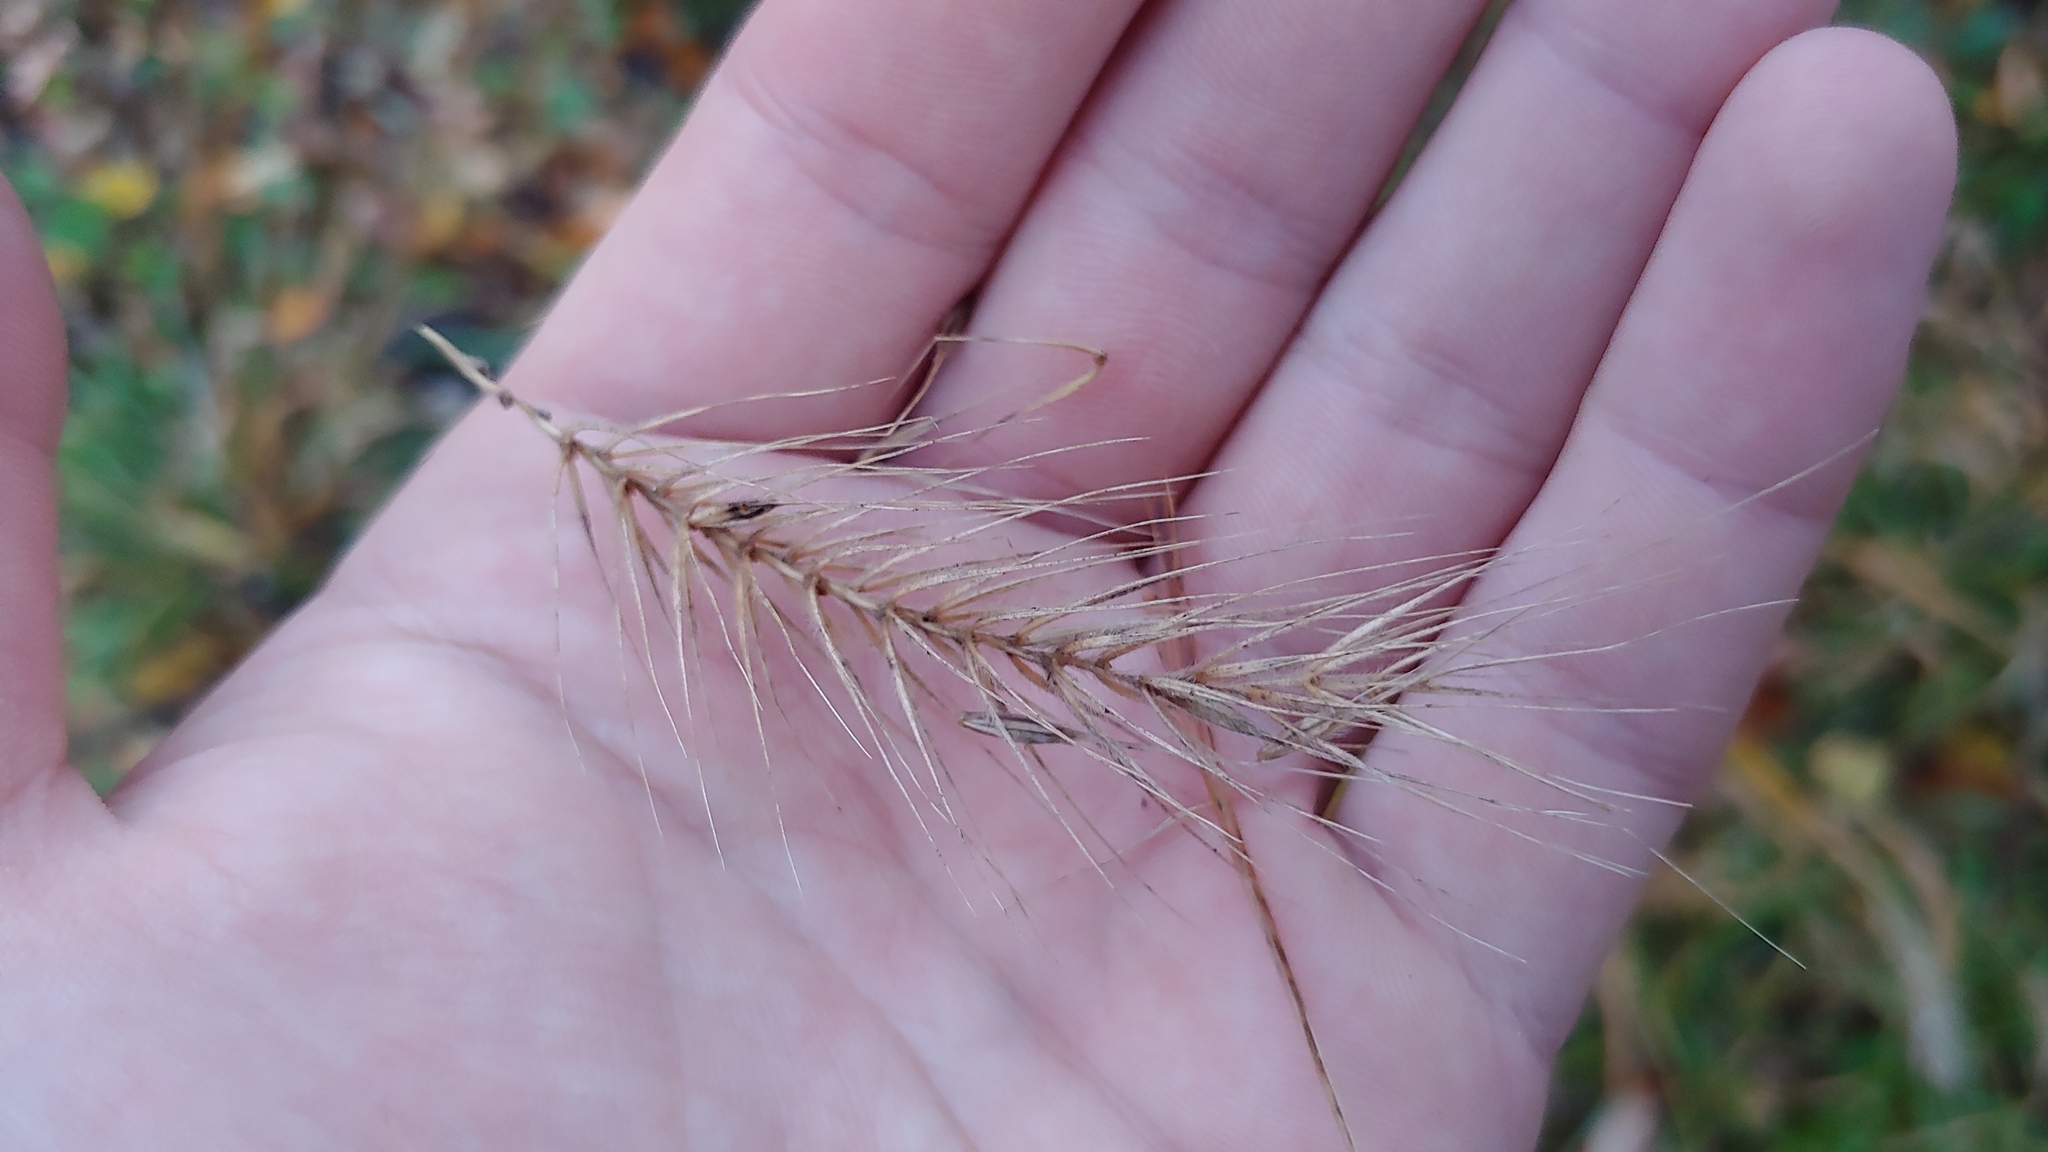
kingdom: Plantae
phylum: Tracheophyta
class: Liliopsida
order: Poales
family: Poaceae
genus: Elymus
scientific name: Elymus villosus
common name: Downy wild rye
